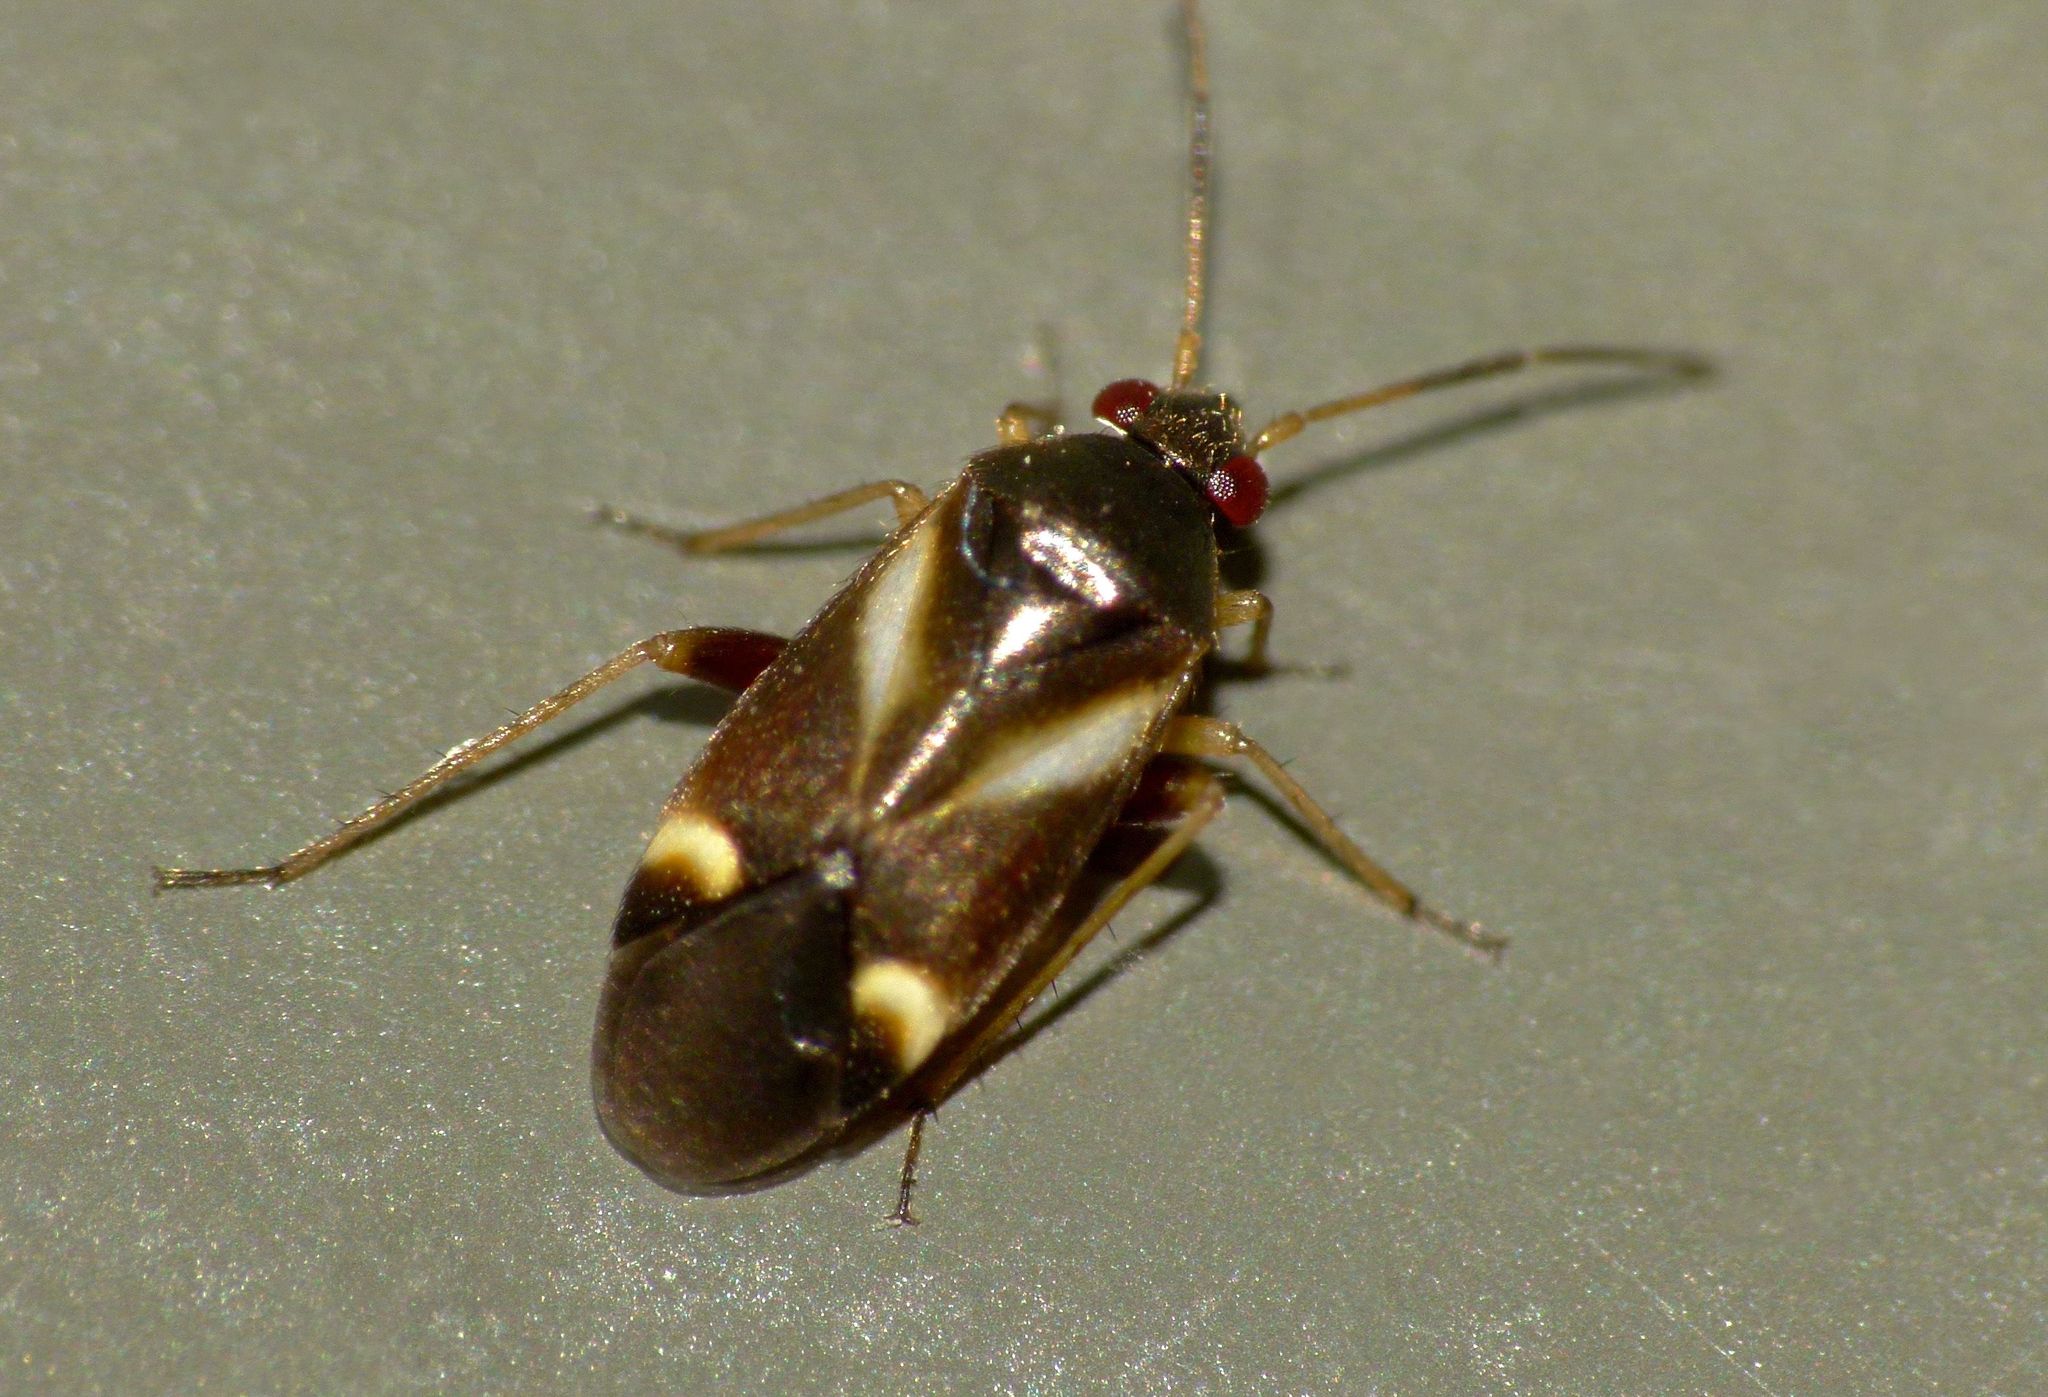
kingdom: Animalia
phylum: Arthropoda
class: Insecta
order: Hemiptera
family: Miridae
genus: Ausejanus
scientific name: Ausejanus albisignatus
